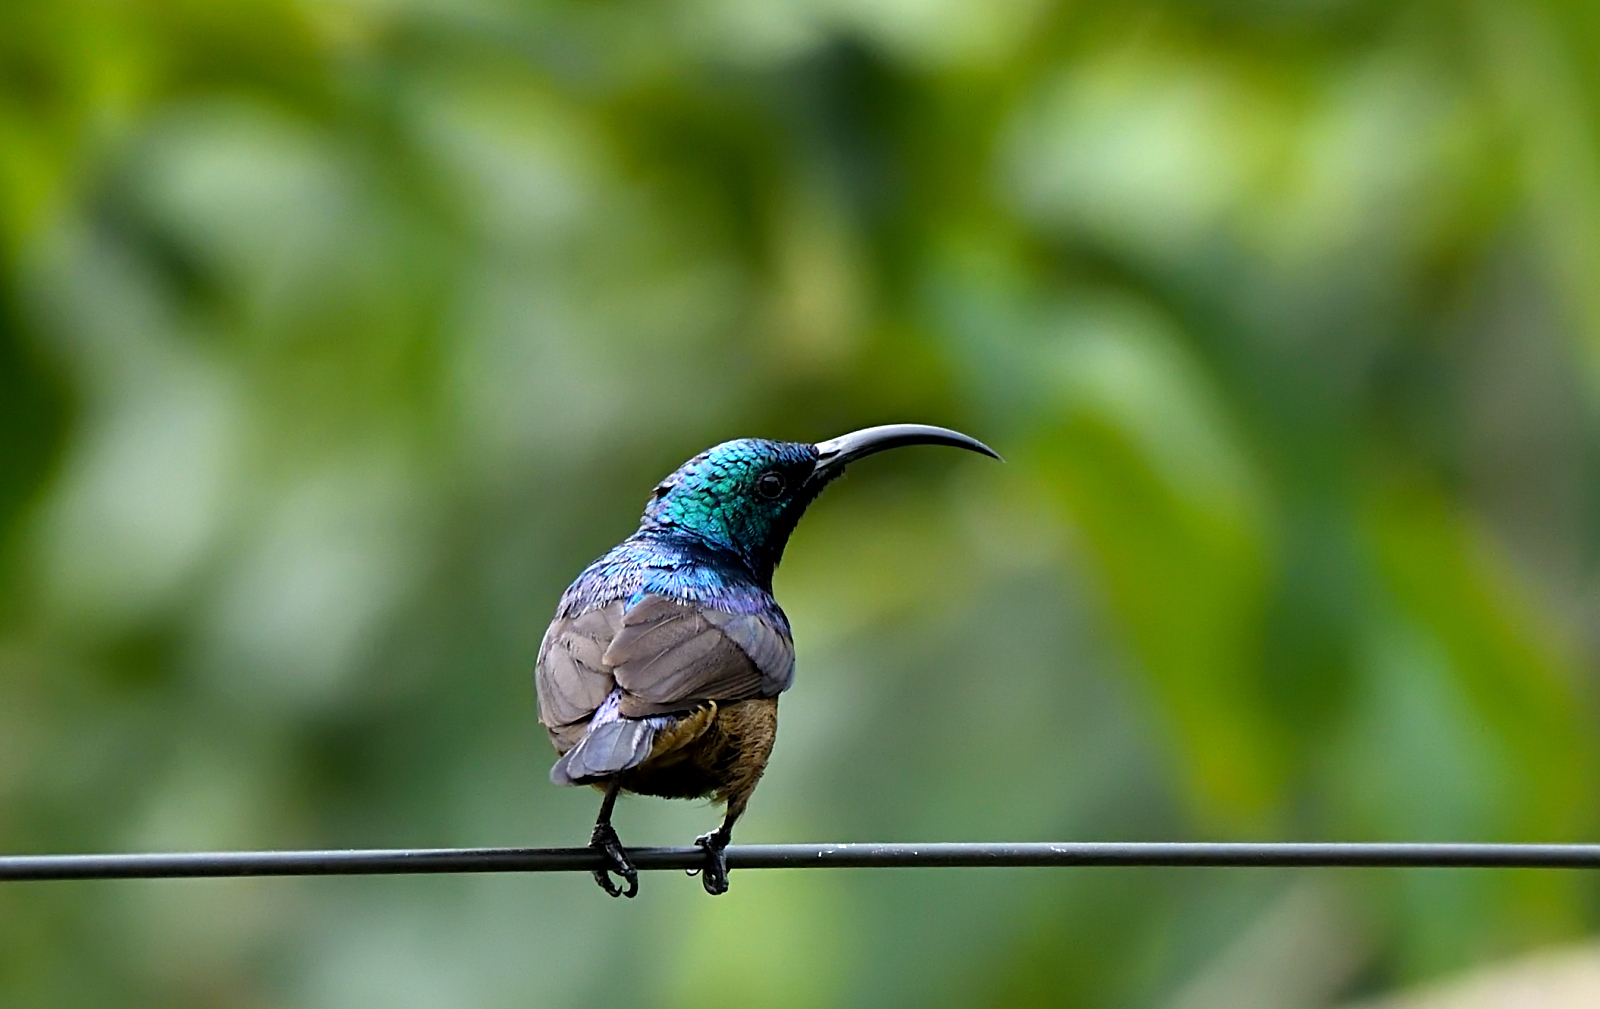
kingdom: Animalia
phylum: Chordata
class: Aves
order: Passeriformes
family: Nectariniidae
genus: Cinnyris
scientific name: Cinnyris lotenius
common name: Loten's sunbird
